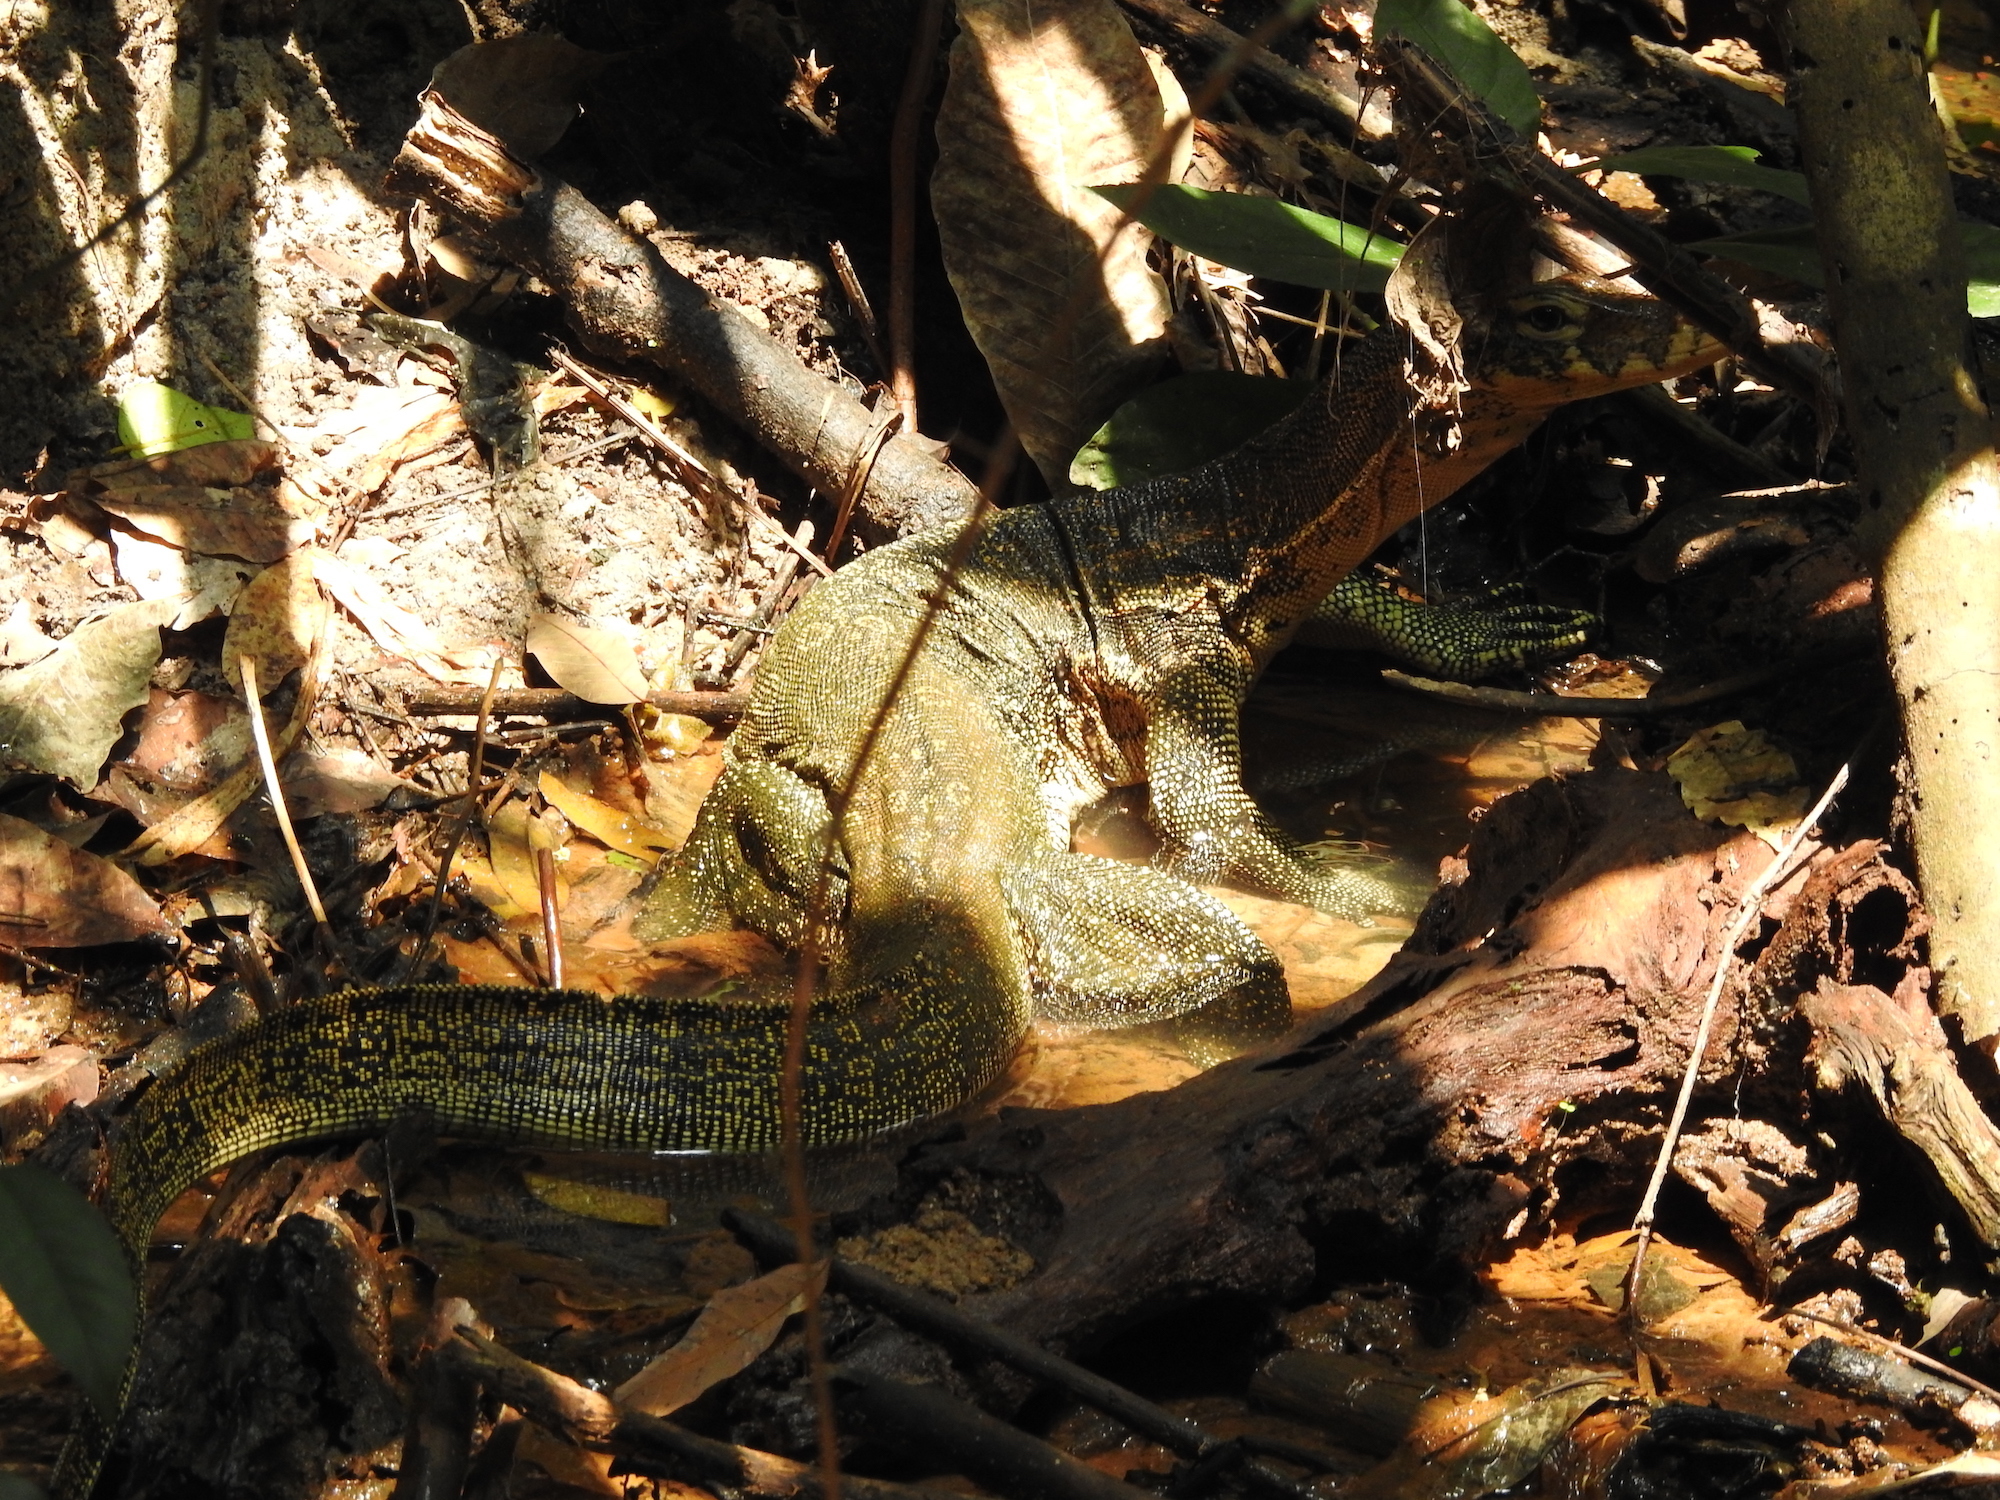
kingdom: Animalia
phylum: Chordata
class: Squamata
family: Varanidae
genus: Varanus
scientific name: Varanus salvator
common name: Common water monitor
